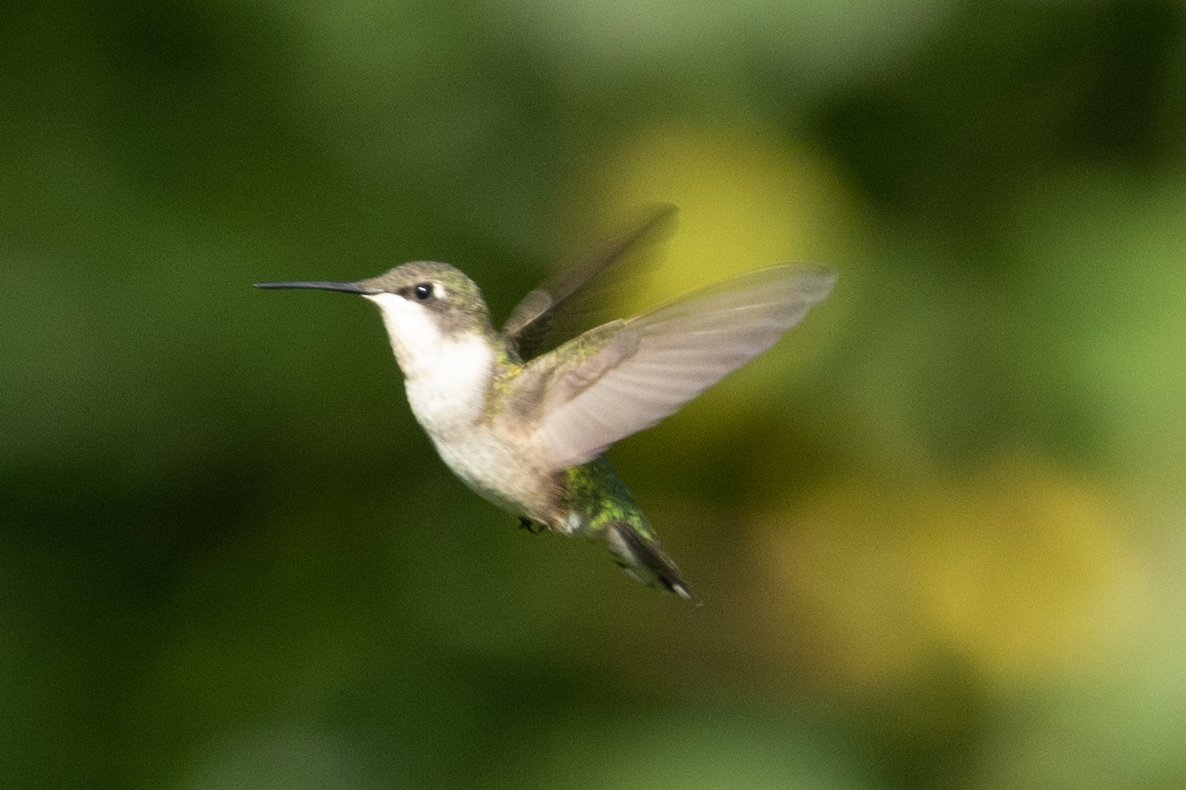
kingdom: Animalia
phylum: Chordata
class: Aves
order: Apodiformes
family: Trochilidae
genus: Archilochus
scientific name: Archilochus colubris
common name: Ruby-throated hummingbird
